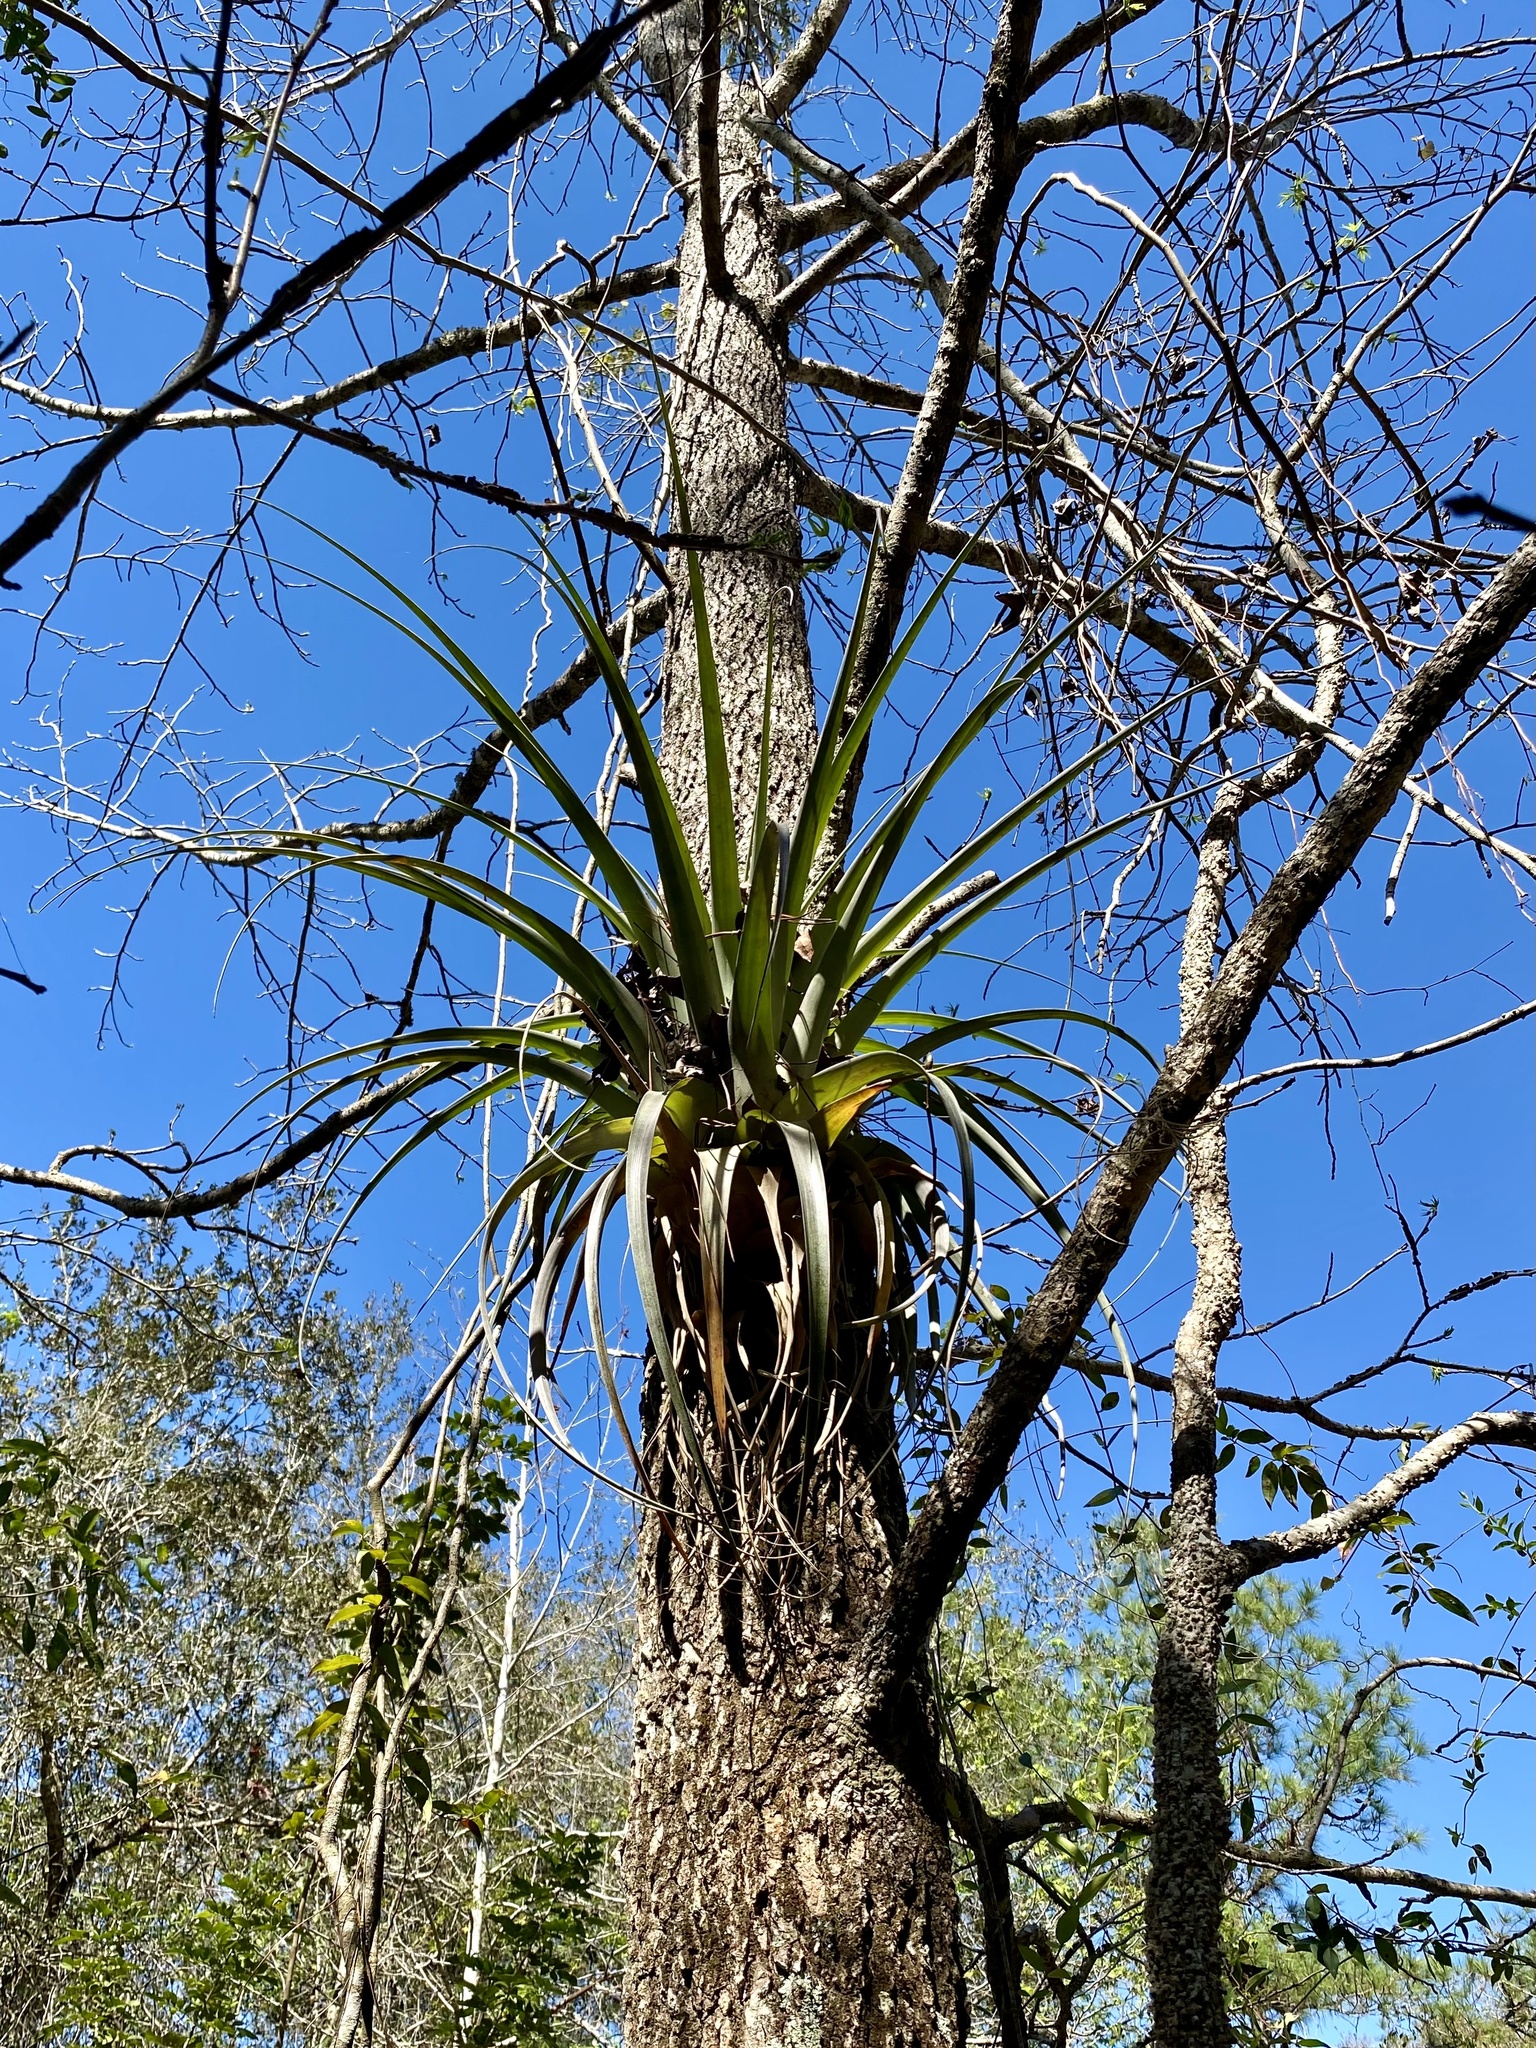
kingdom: Plantae
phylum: Tracheophyta
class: Liliopsida
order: Poales
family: Bromeliaceae
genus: Tillandsia
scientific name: Tillandsia utriculata
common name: Wild pine
